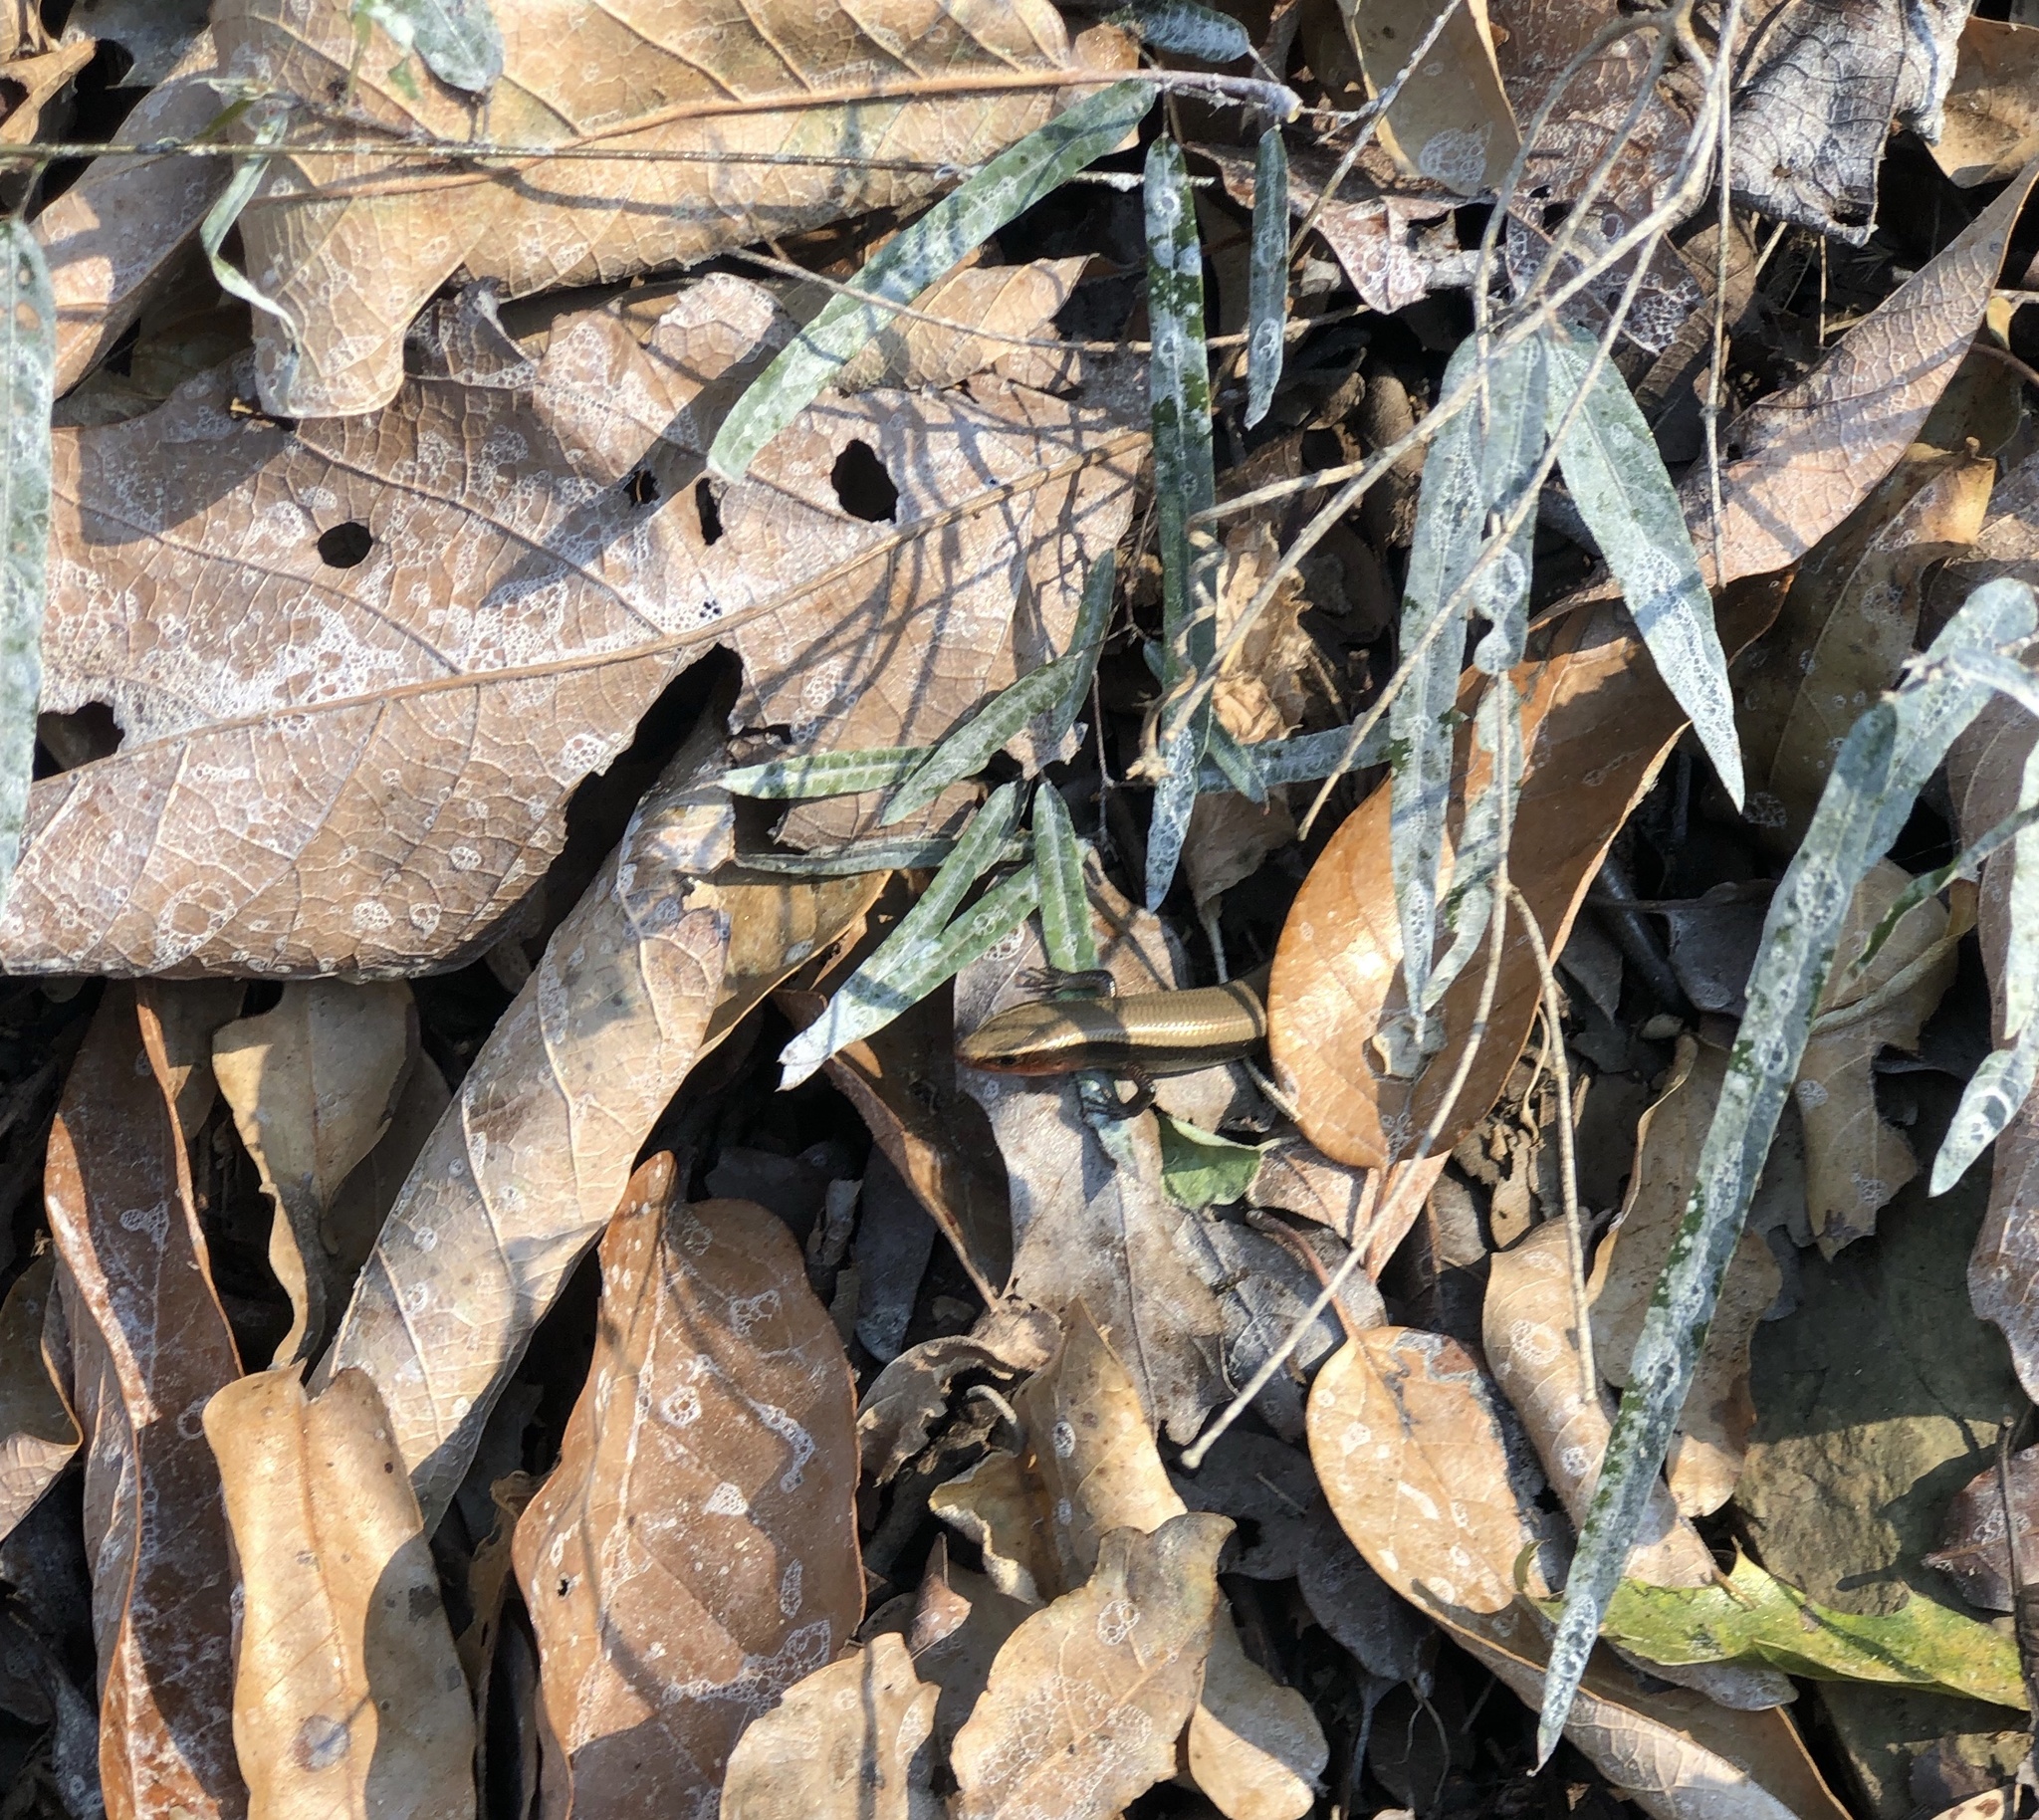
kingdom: Animalia
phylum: Chordata
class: Squamata
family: Scincidae
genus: Plestiodon
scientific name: Plestiodon dicei
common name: Dice's short-nosed skink
